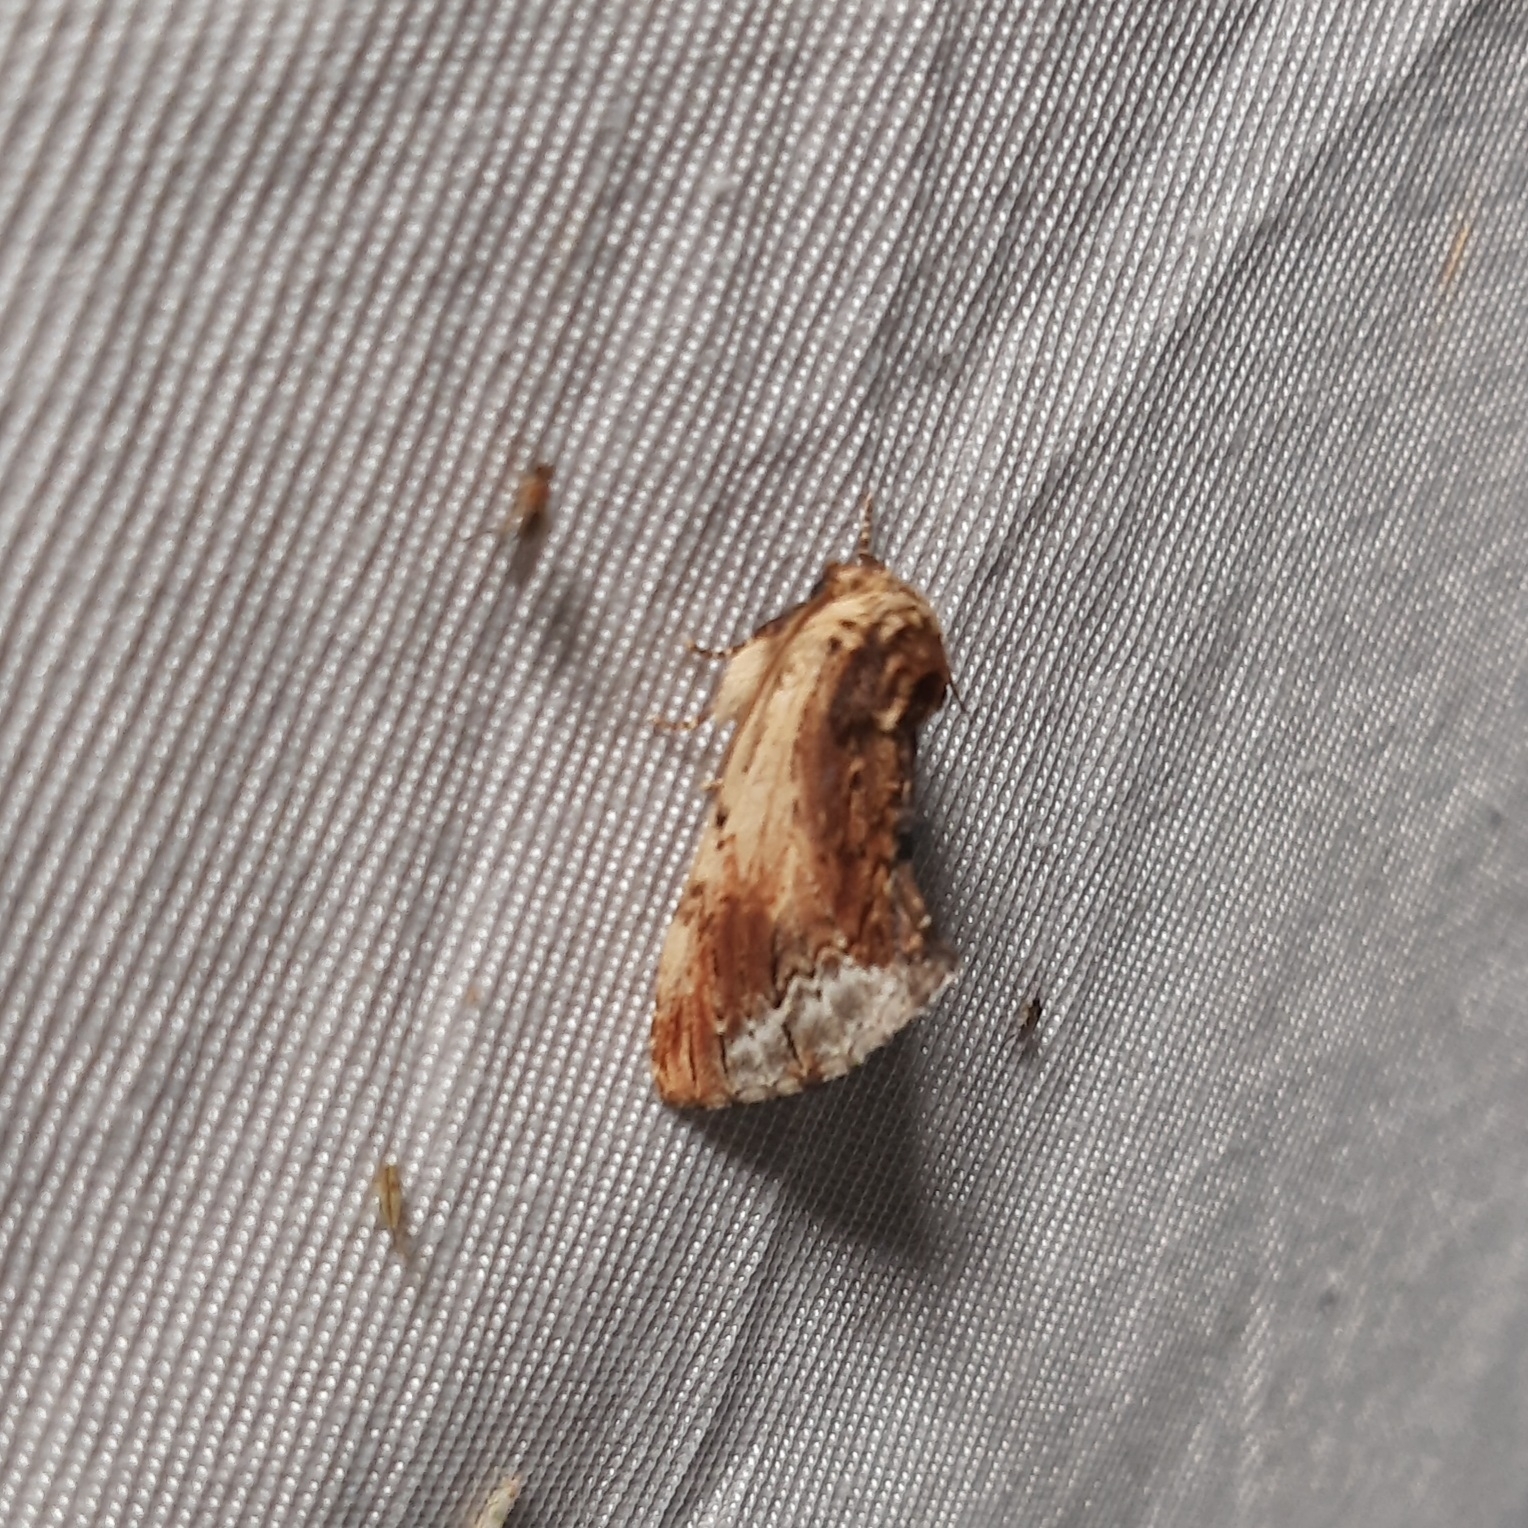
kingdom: Animalia
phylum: Arthropoda
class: Insecta
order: Lepidoptera
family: Notodontidae
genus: Ptilodon
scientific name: Ptilodon cucullina
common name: Maple prominent
